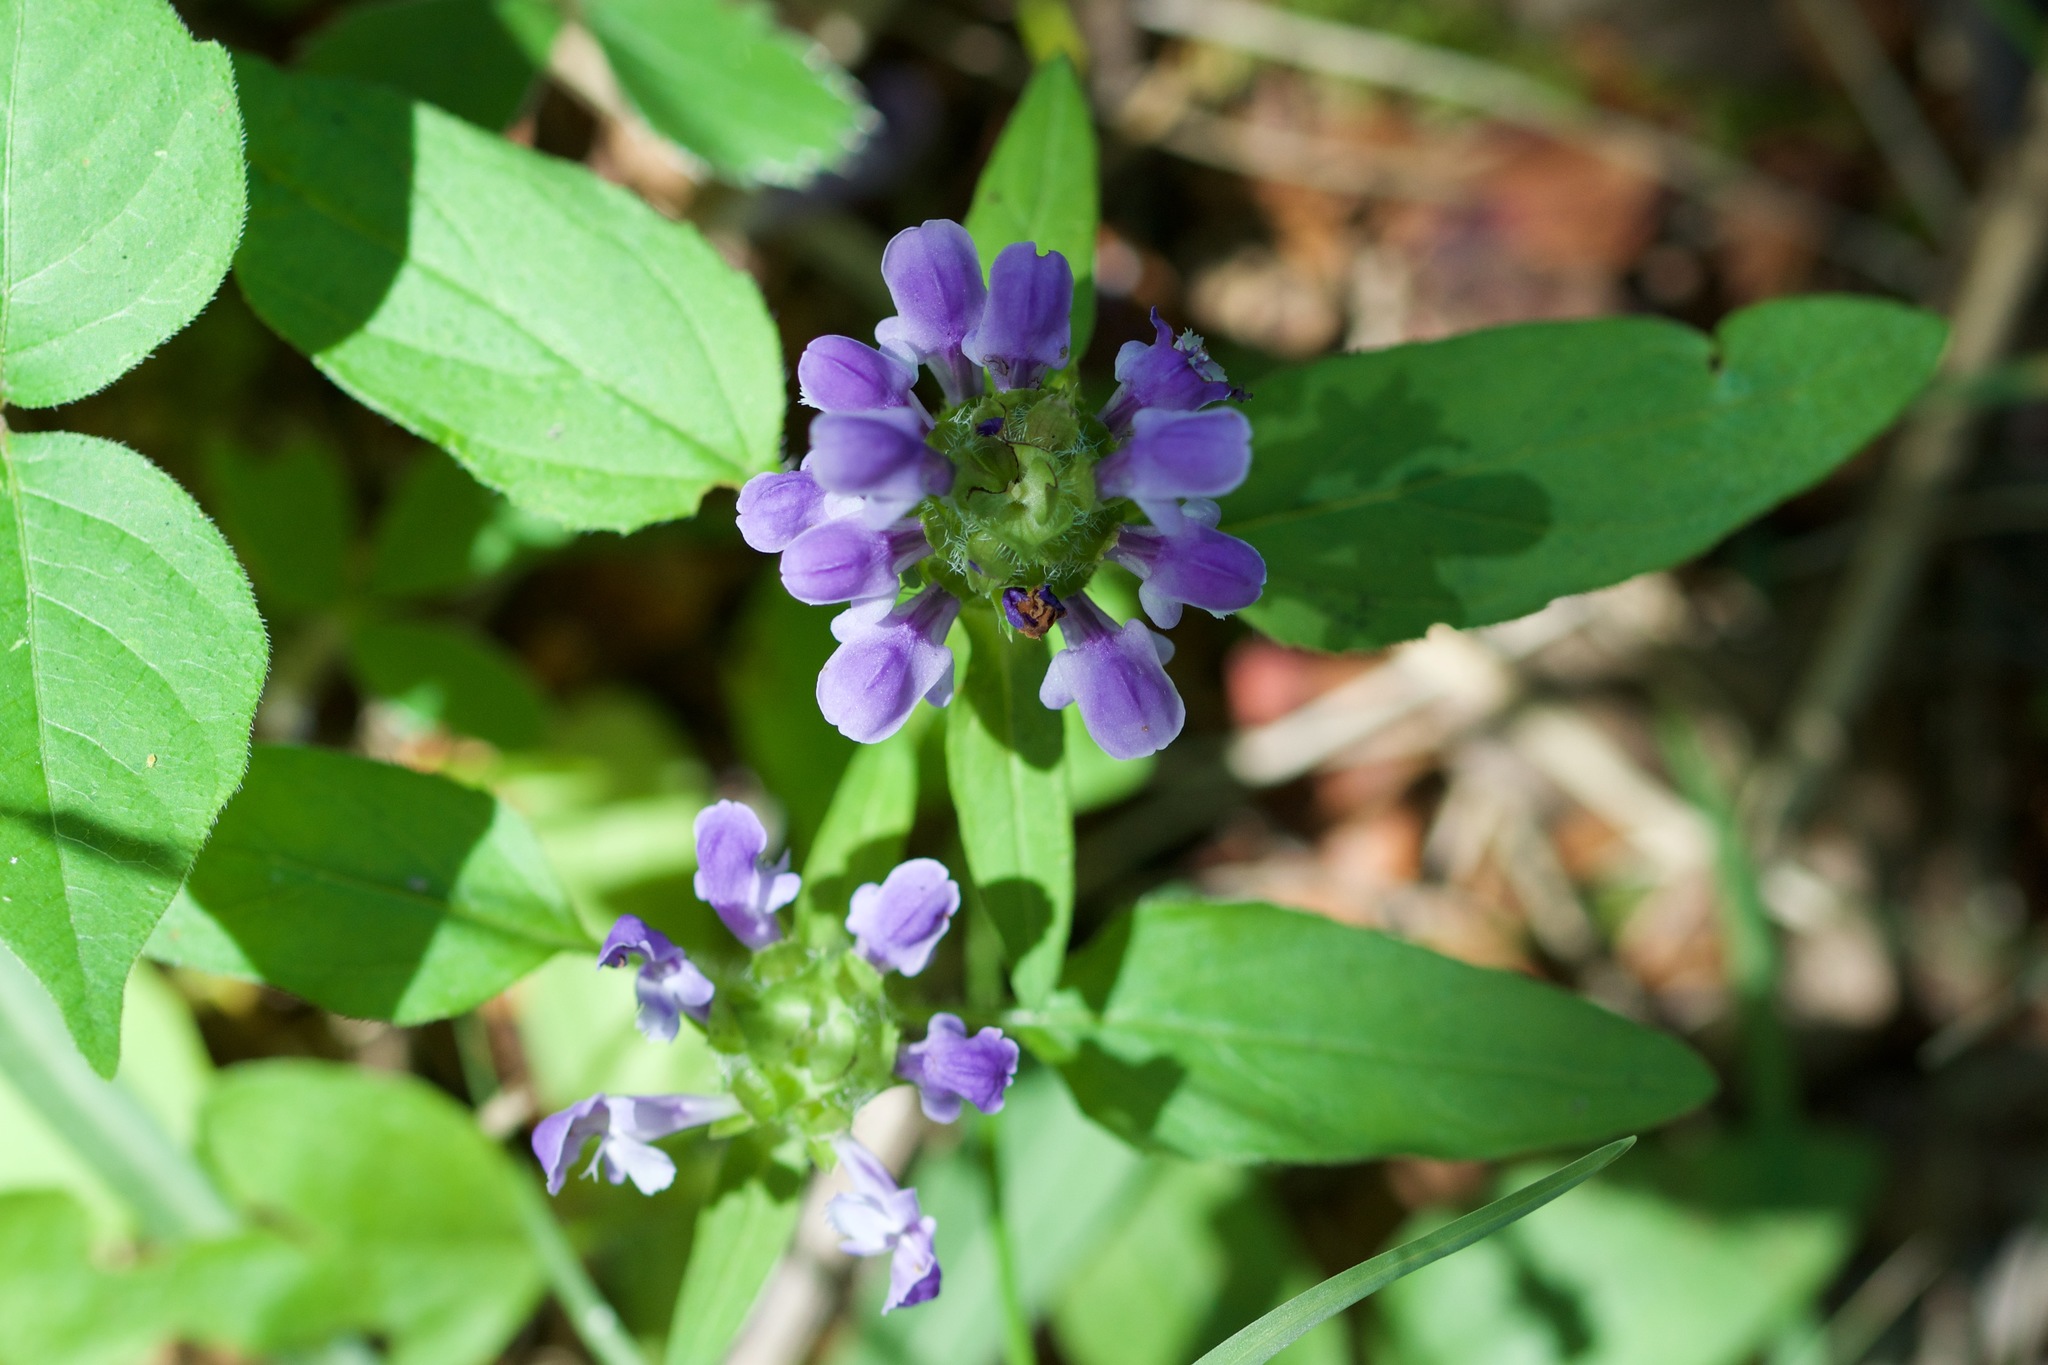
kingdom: Plantae
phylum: Tracheophyta
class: Magnoliopsida
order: Lamiales
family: Lamiaceae
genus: Prunella
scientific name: Prunella vulgaris
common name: Heal-all
